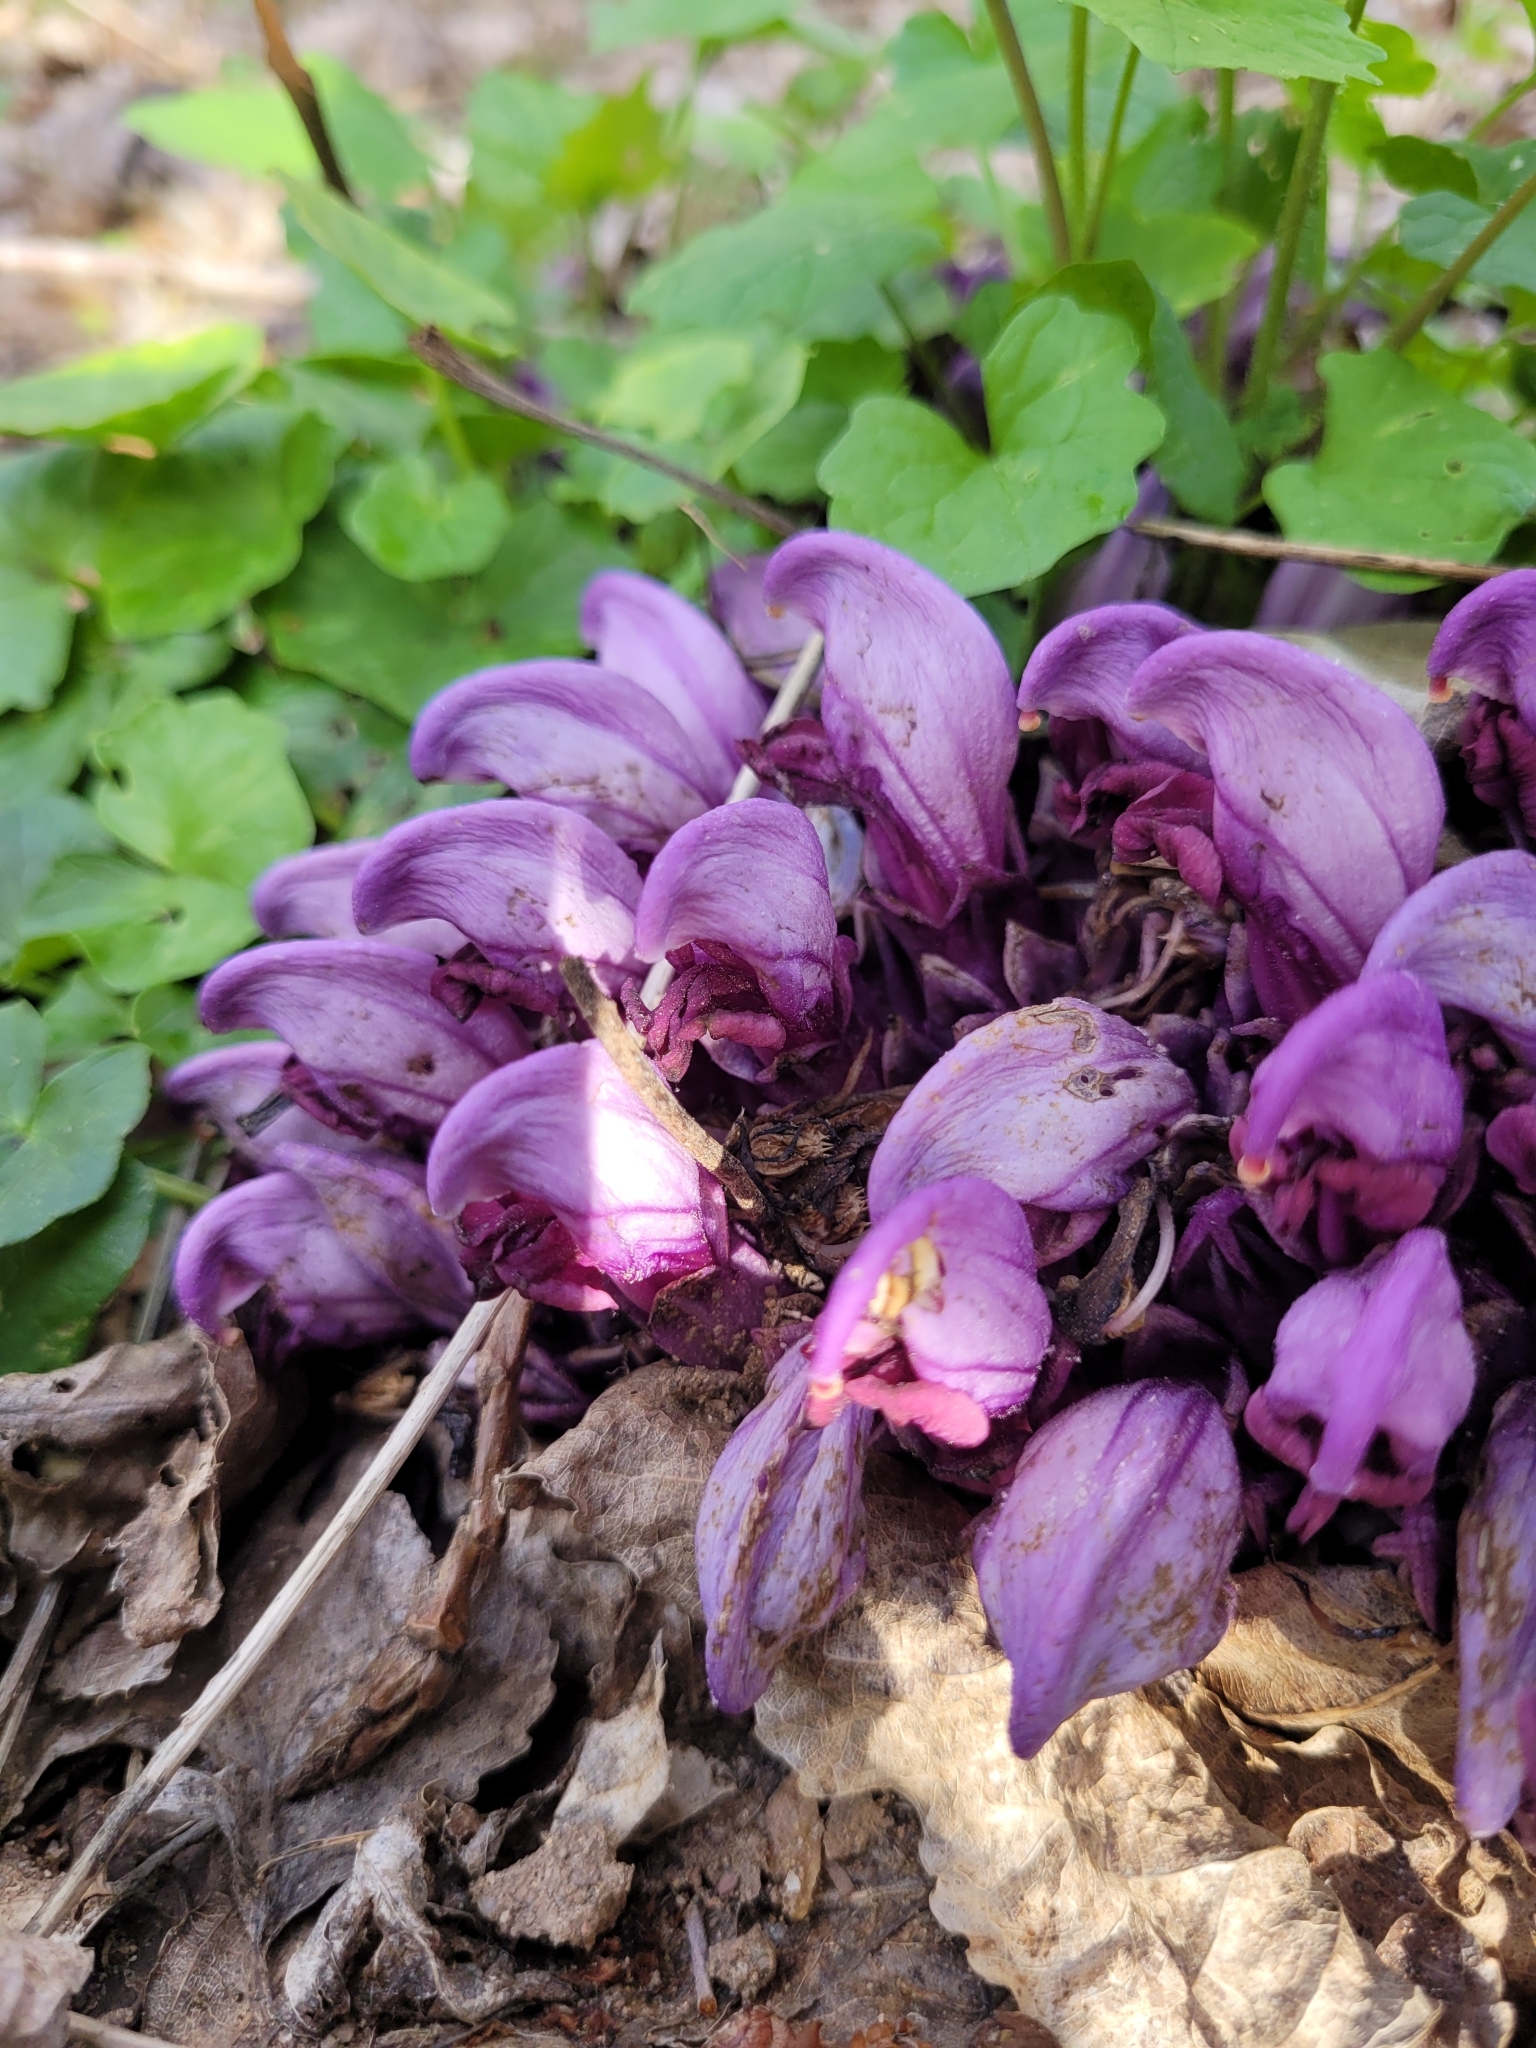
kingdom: Plantae
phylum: Tracheophyta
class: Magnoliopsida
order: Lamiales
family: Orobanchaceae
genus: Lathraea
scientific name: Lathraea clandestina
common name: Purple toothwort
